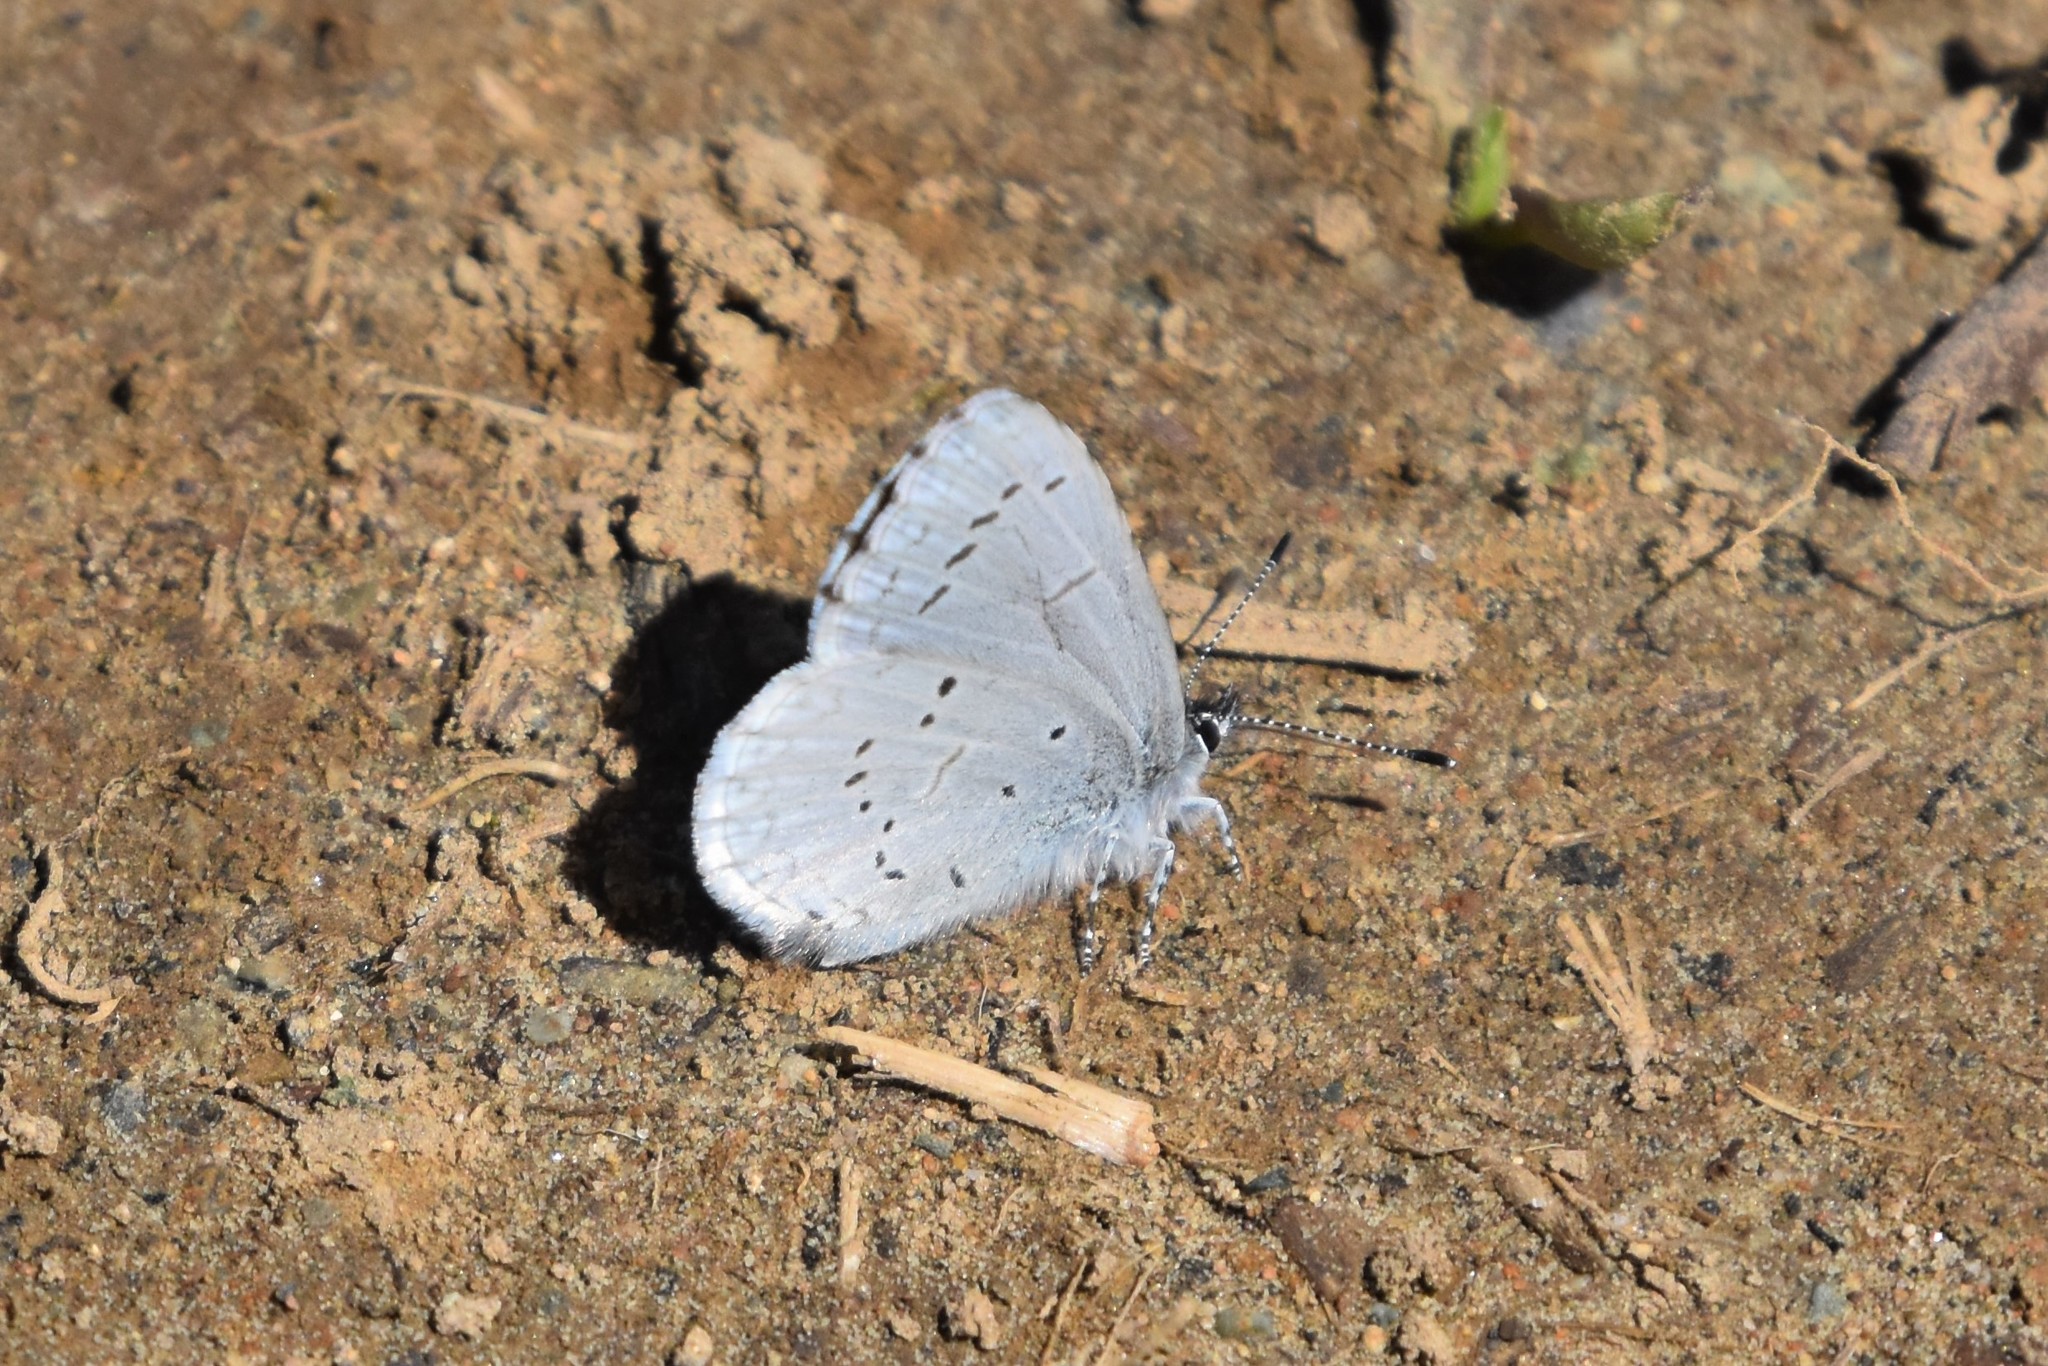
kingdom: Animalia
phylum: Arthropoda
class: Insecta
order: Lepidoptera
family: Lycaenidae
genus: Celastrina
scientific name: Celastrina ladon
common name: Spring azure
